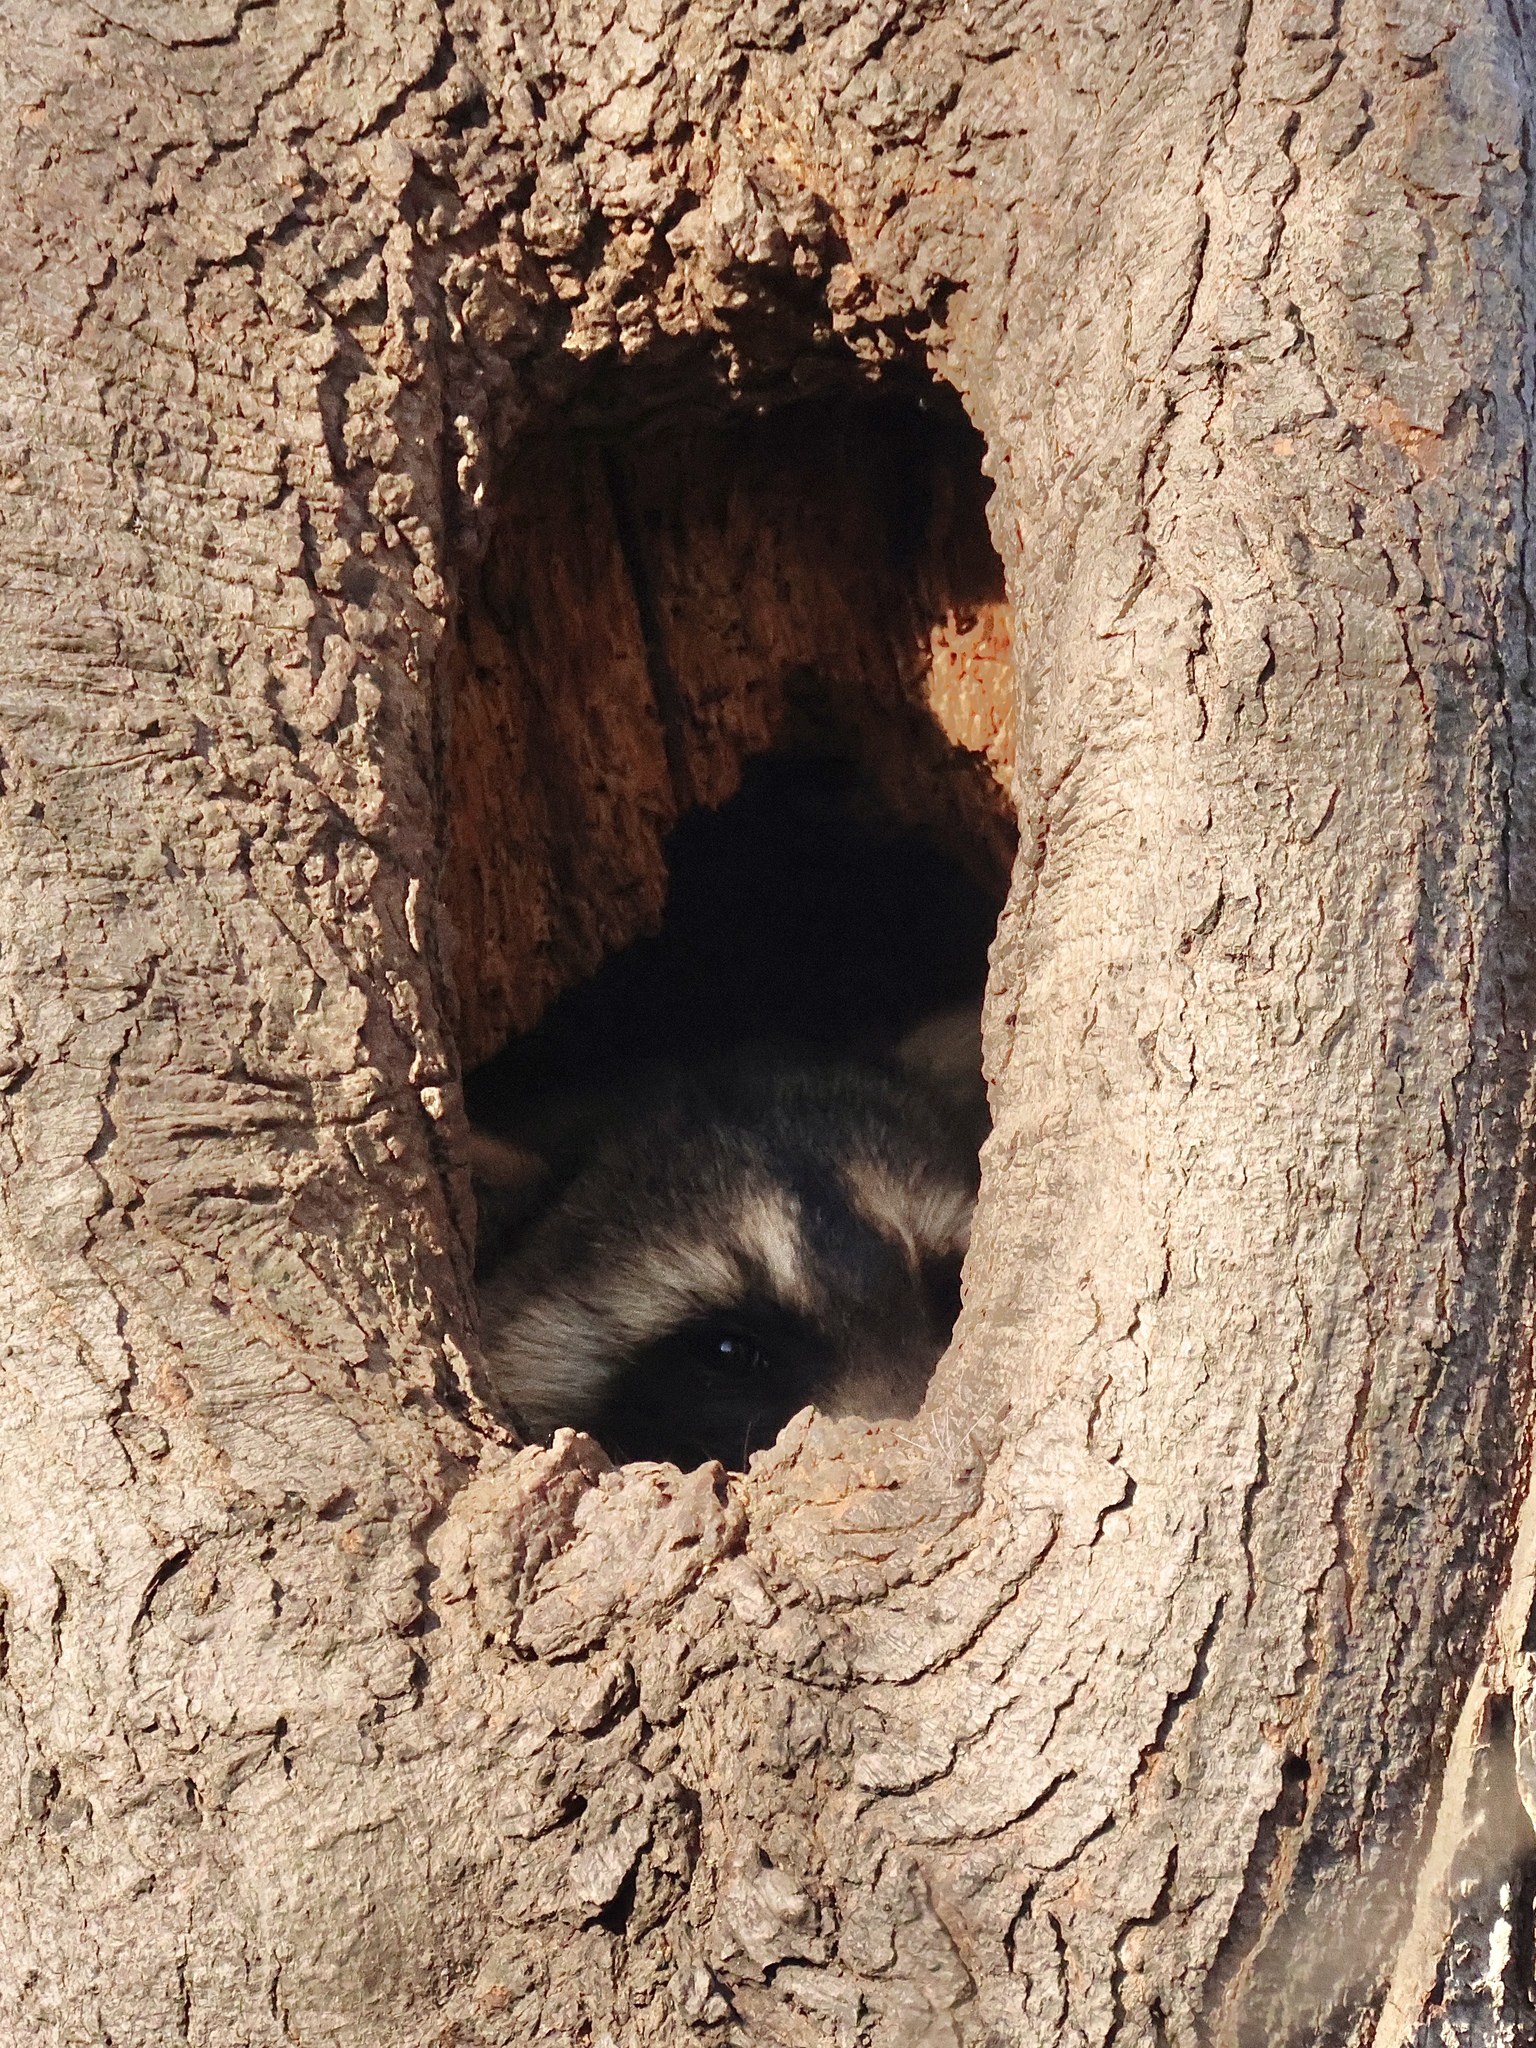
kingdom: Animalia
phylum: Chordata
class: Mammalia
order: Carnivora
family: Procyonidae
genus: Procyon
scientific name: Procyon lotor
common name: Raccoon
